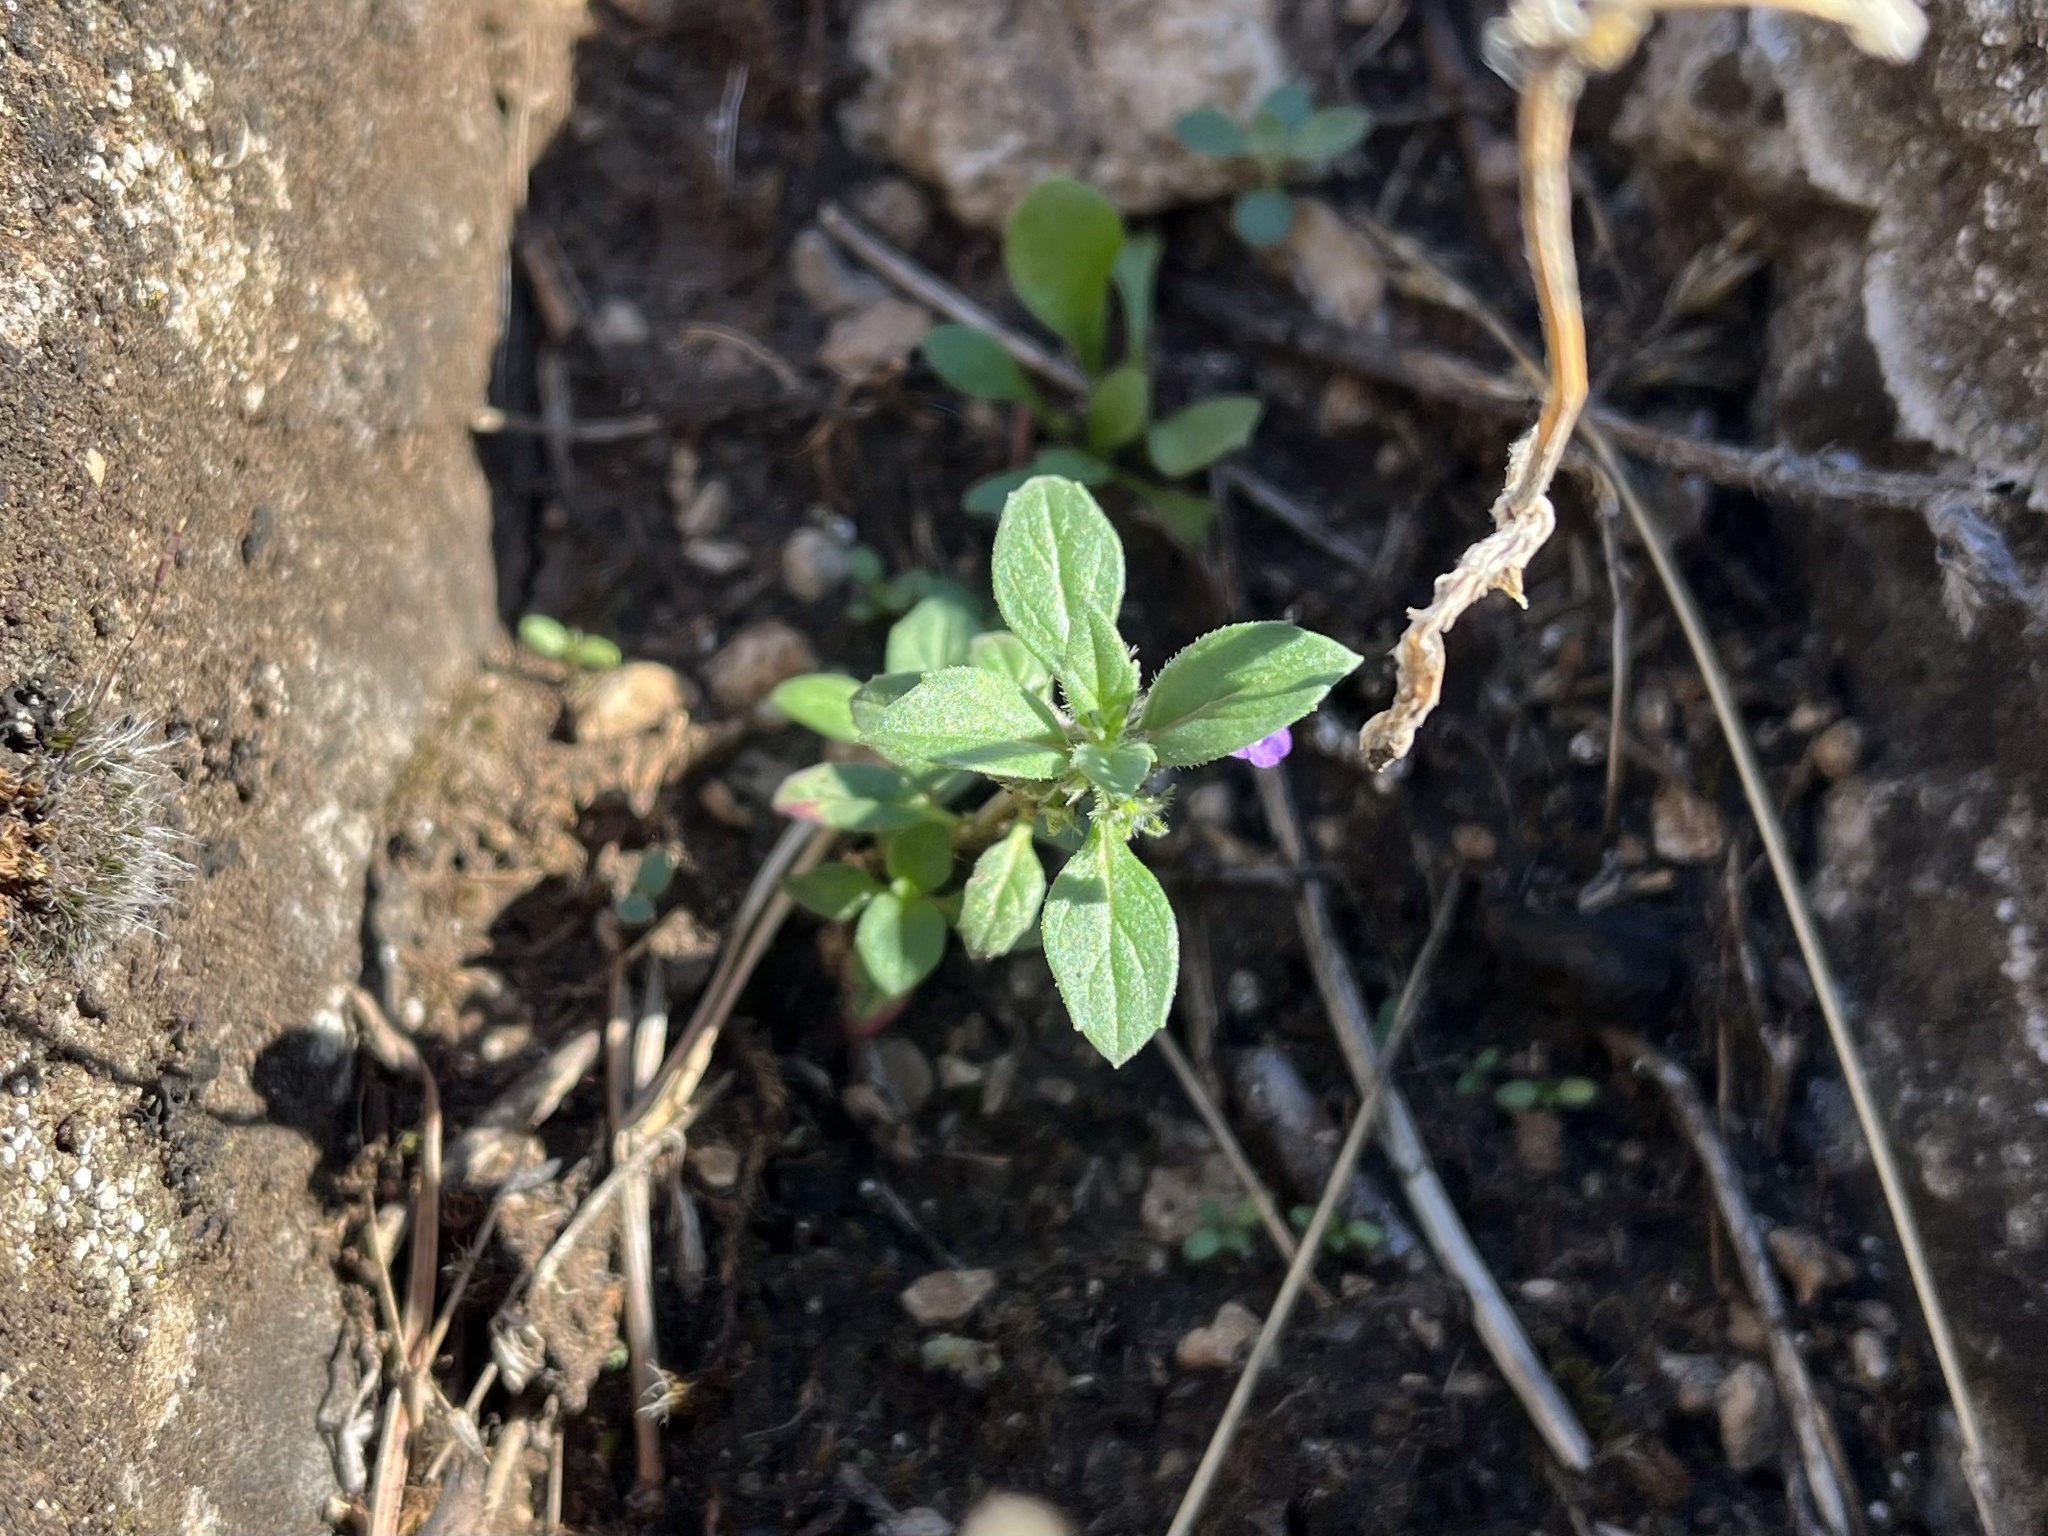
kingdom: Plantae
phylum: Tracheophyta
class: Magnoliopsida
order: Lamiales
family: Lamiaceae
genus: Clinopodium
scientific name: Clinopodium acinos
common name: Basil thyme
